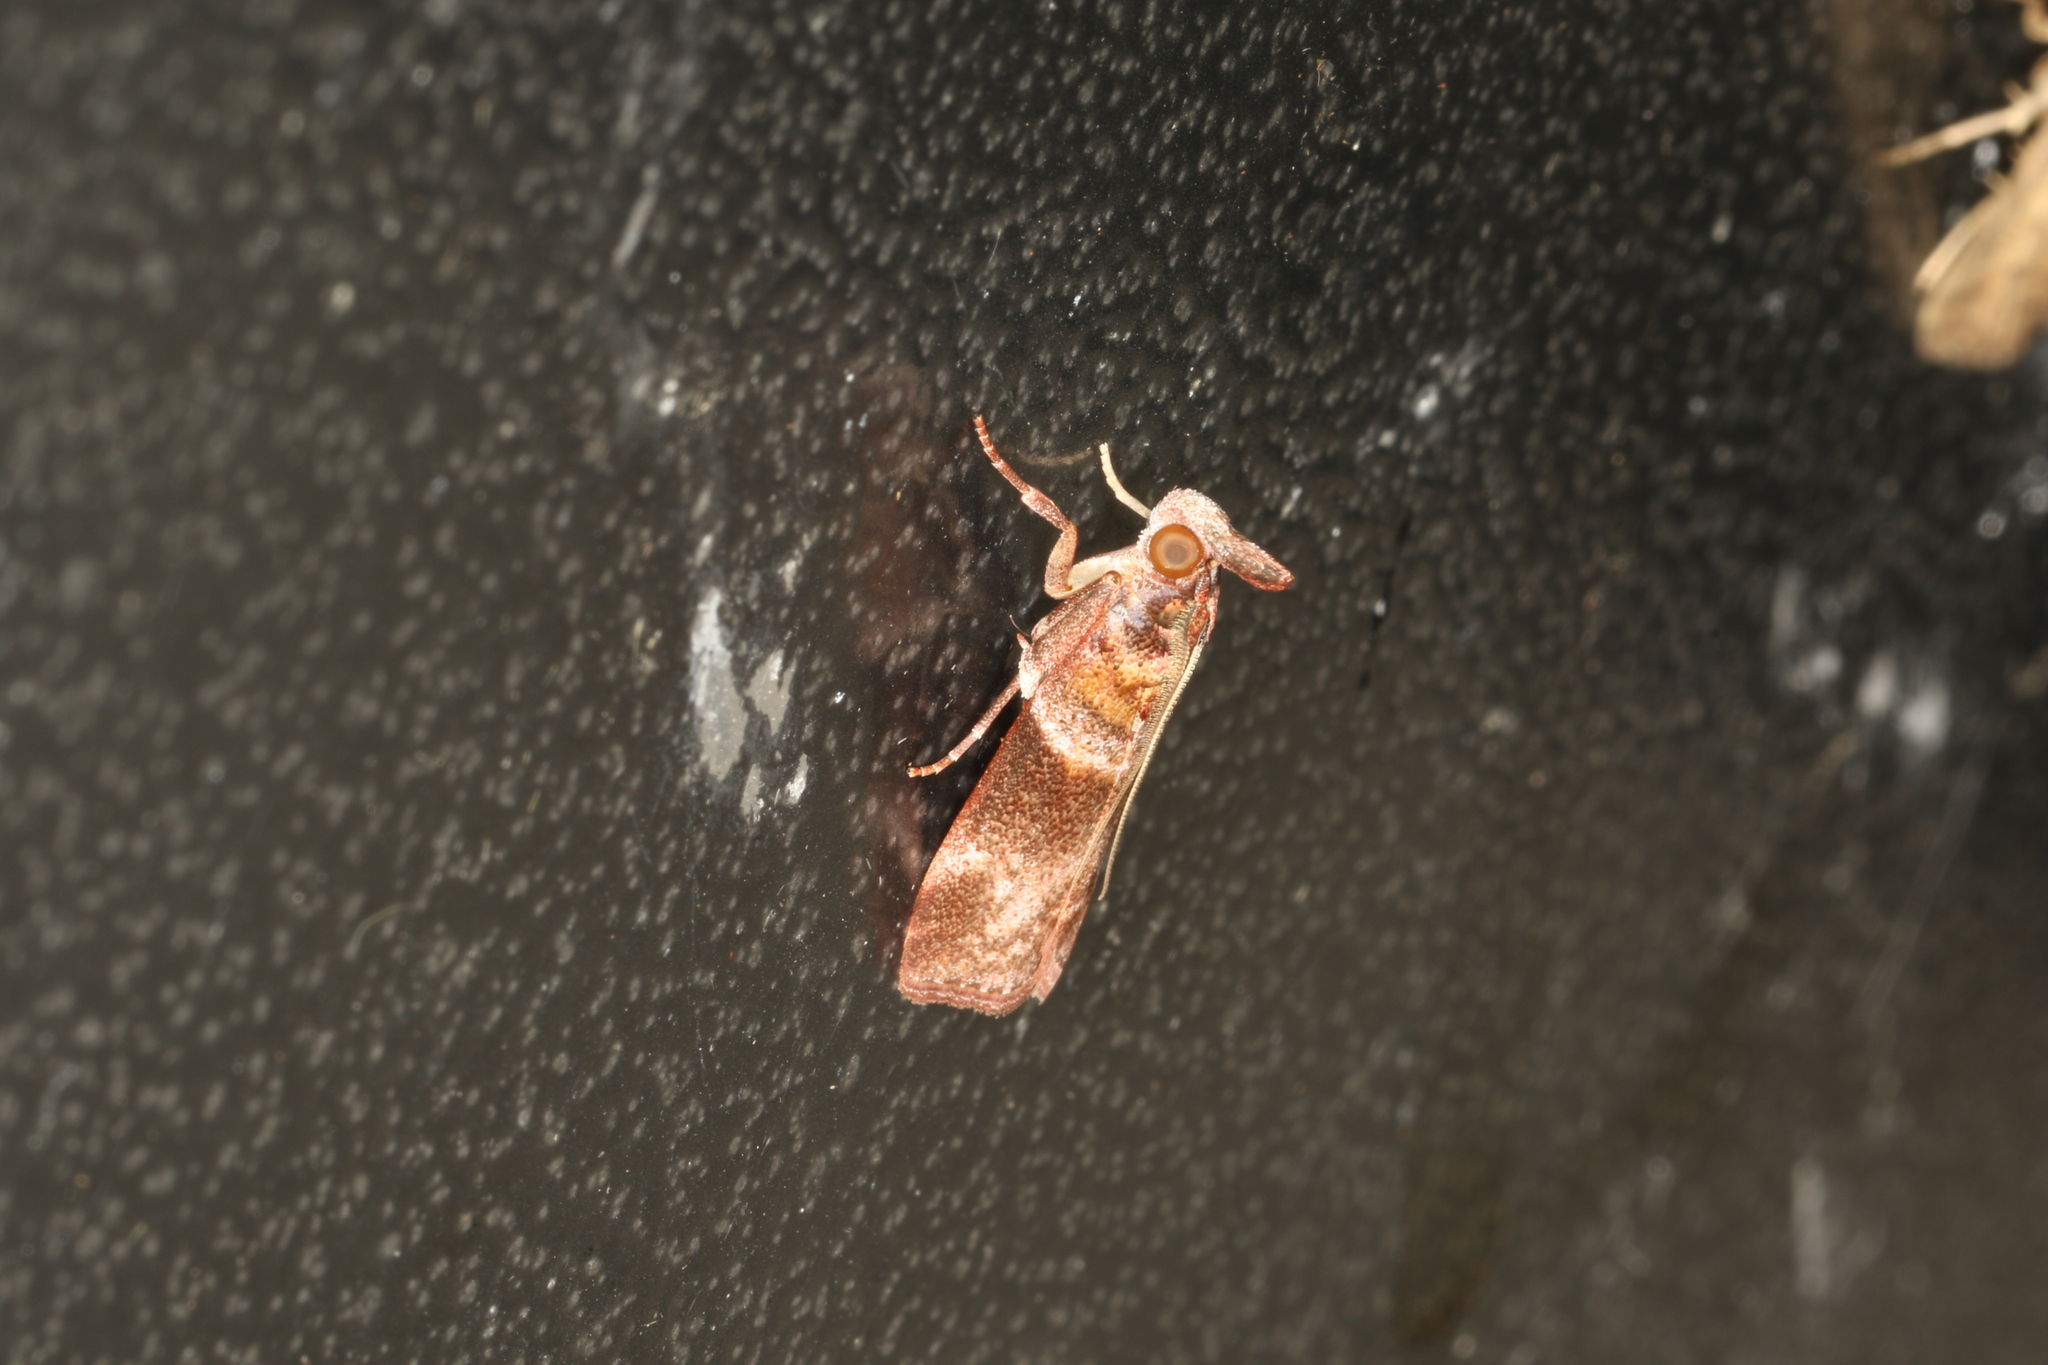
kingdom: Animalia
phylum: Arthropoda
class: Insecta
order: Lepidoptera
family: Pyralidae
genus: Calguia
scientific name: Calguia defiguralis
